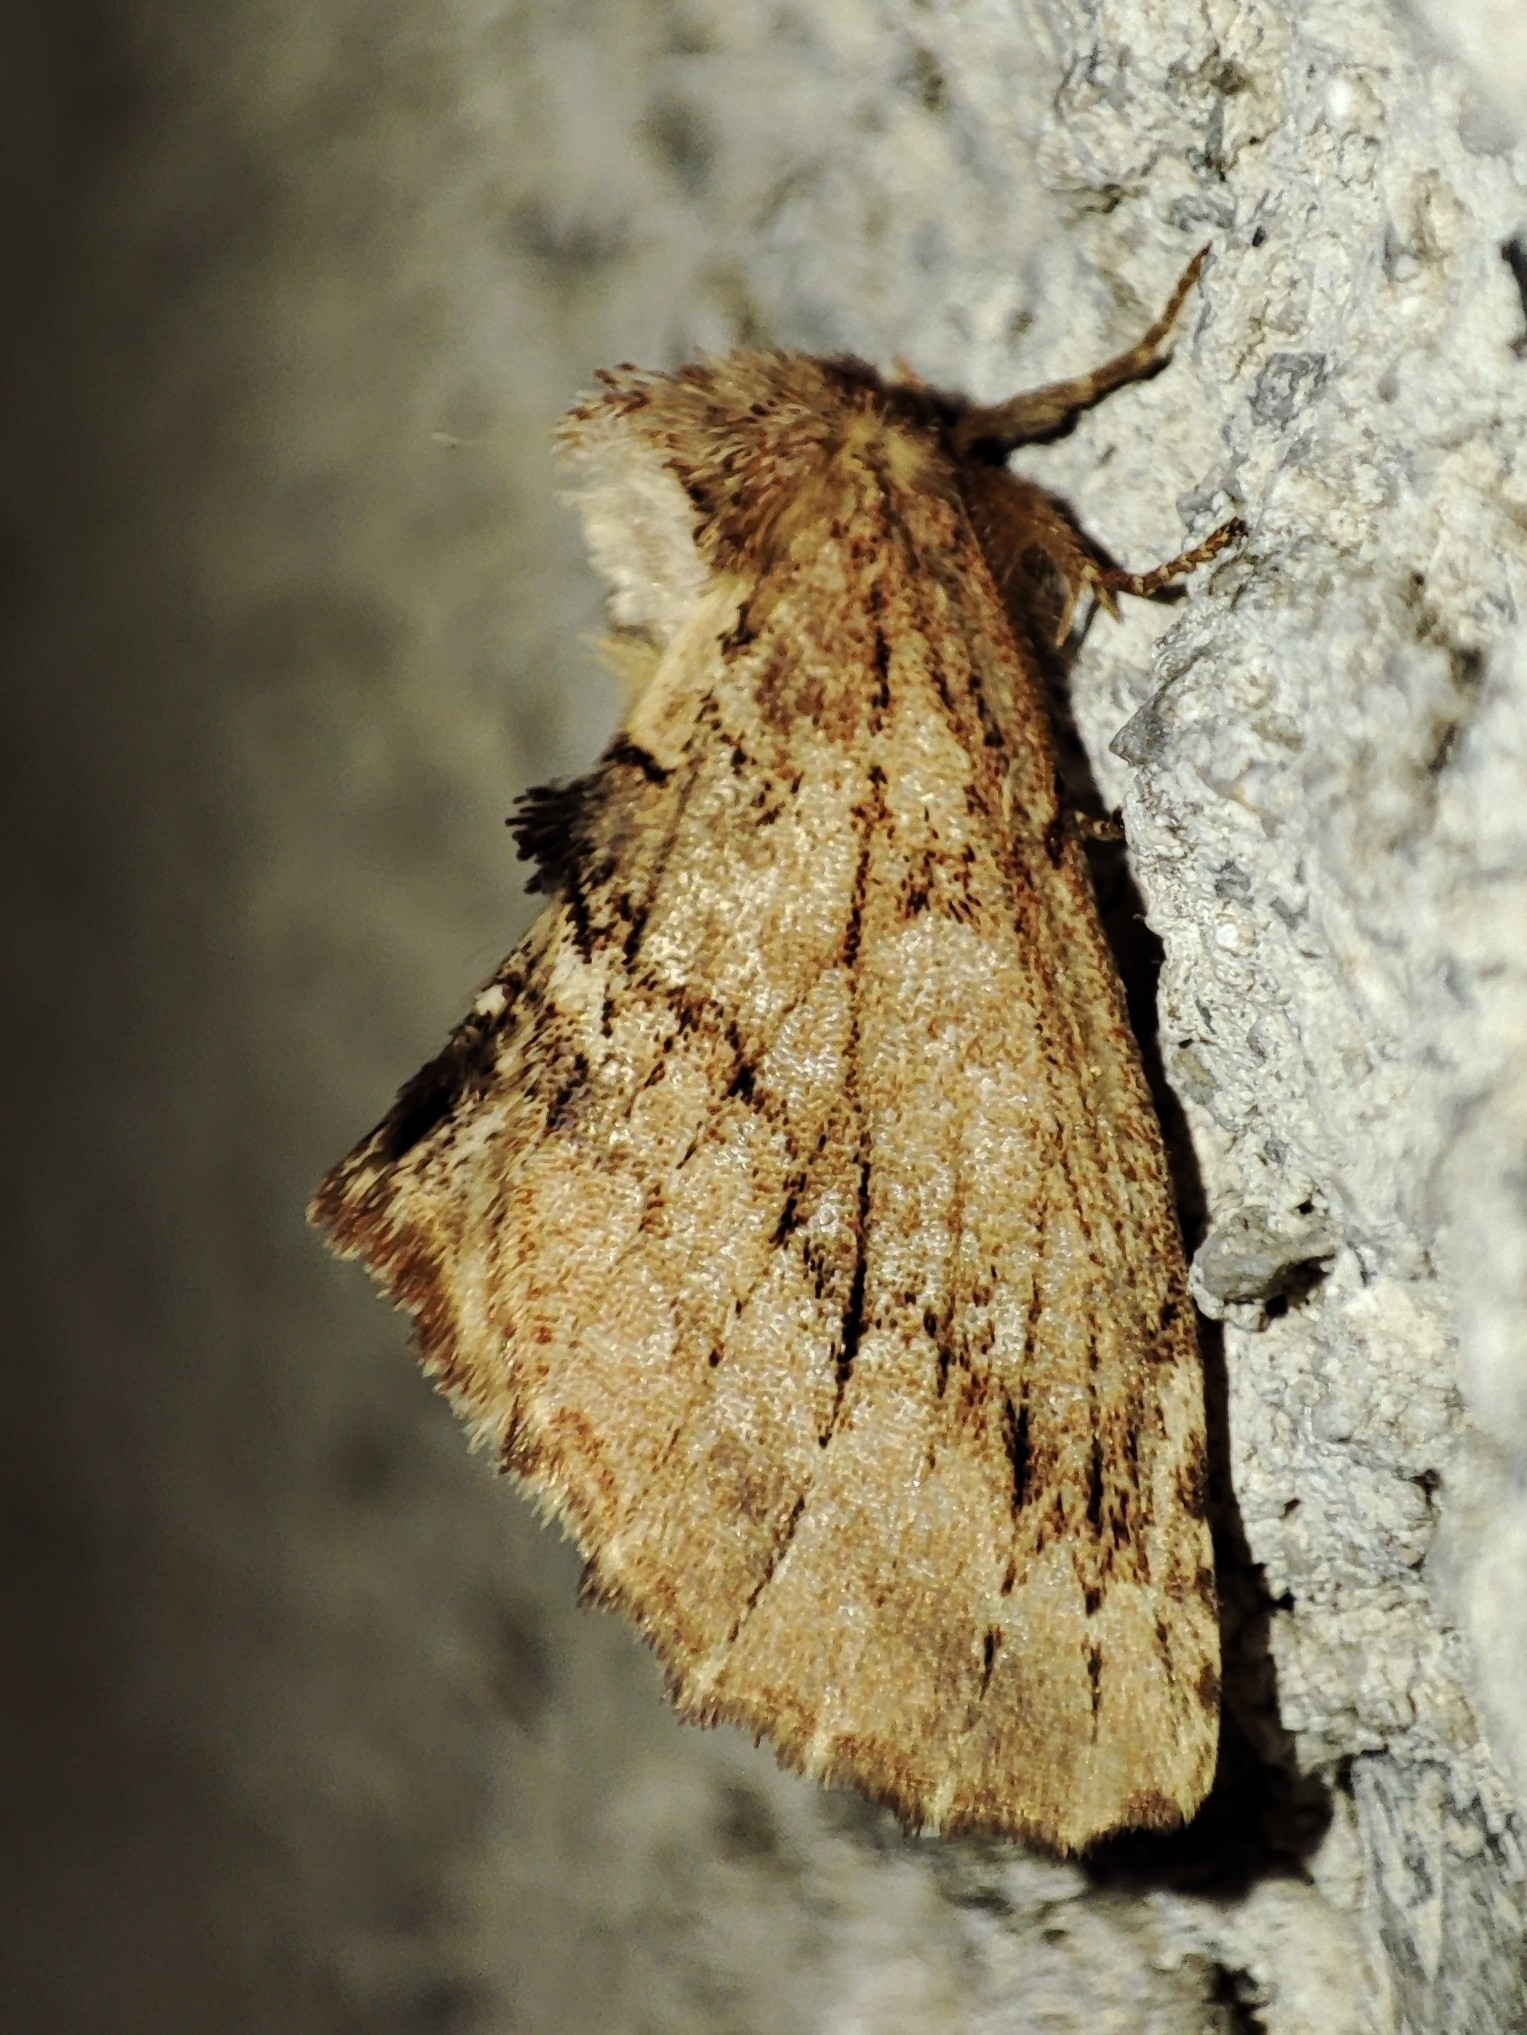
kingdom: Animalia
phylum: Arthropoda
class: Insecta
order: Lepidoptera
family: Notodontidae
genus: Ptilodon
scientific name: Ptilodon capucina
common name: Coxcomb prominent
